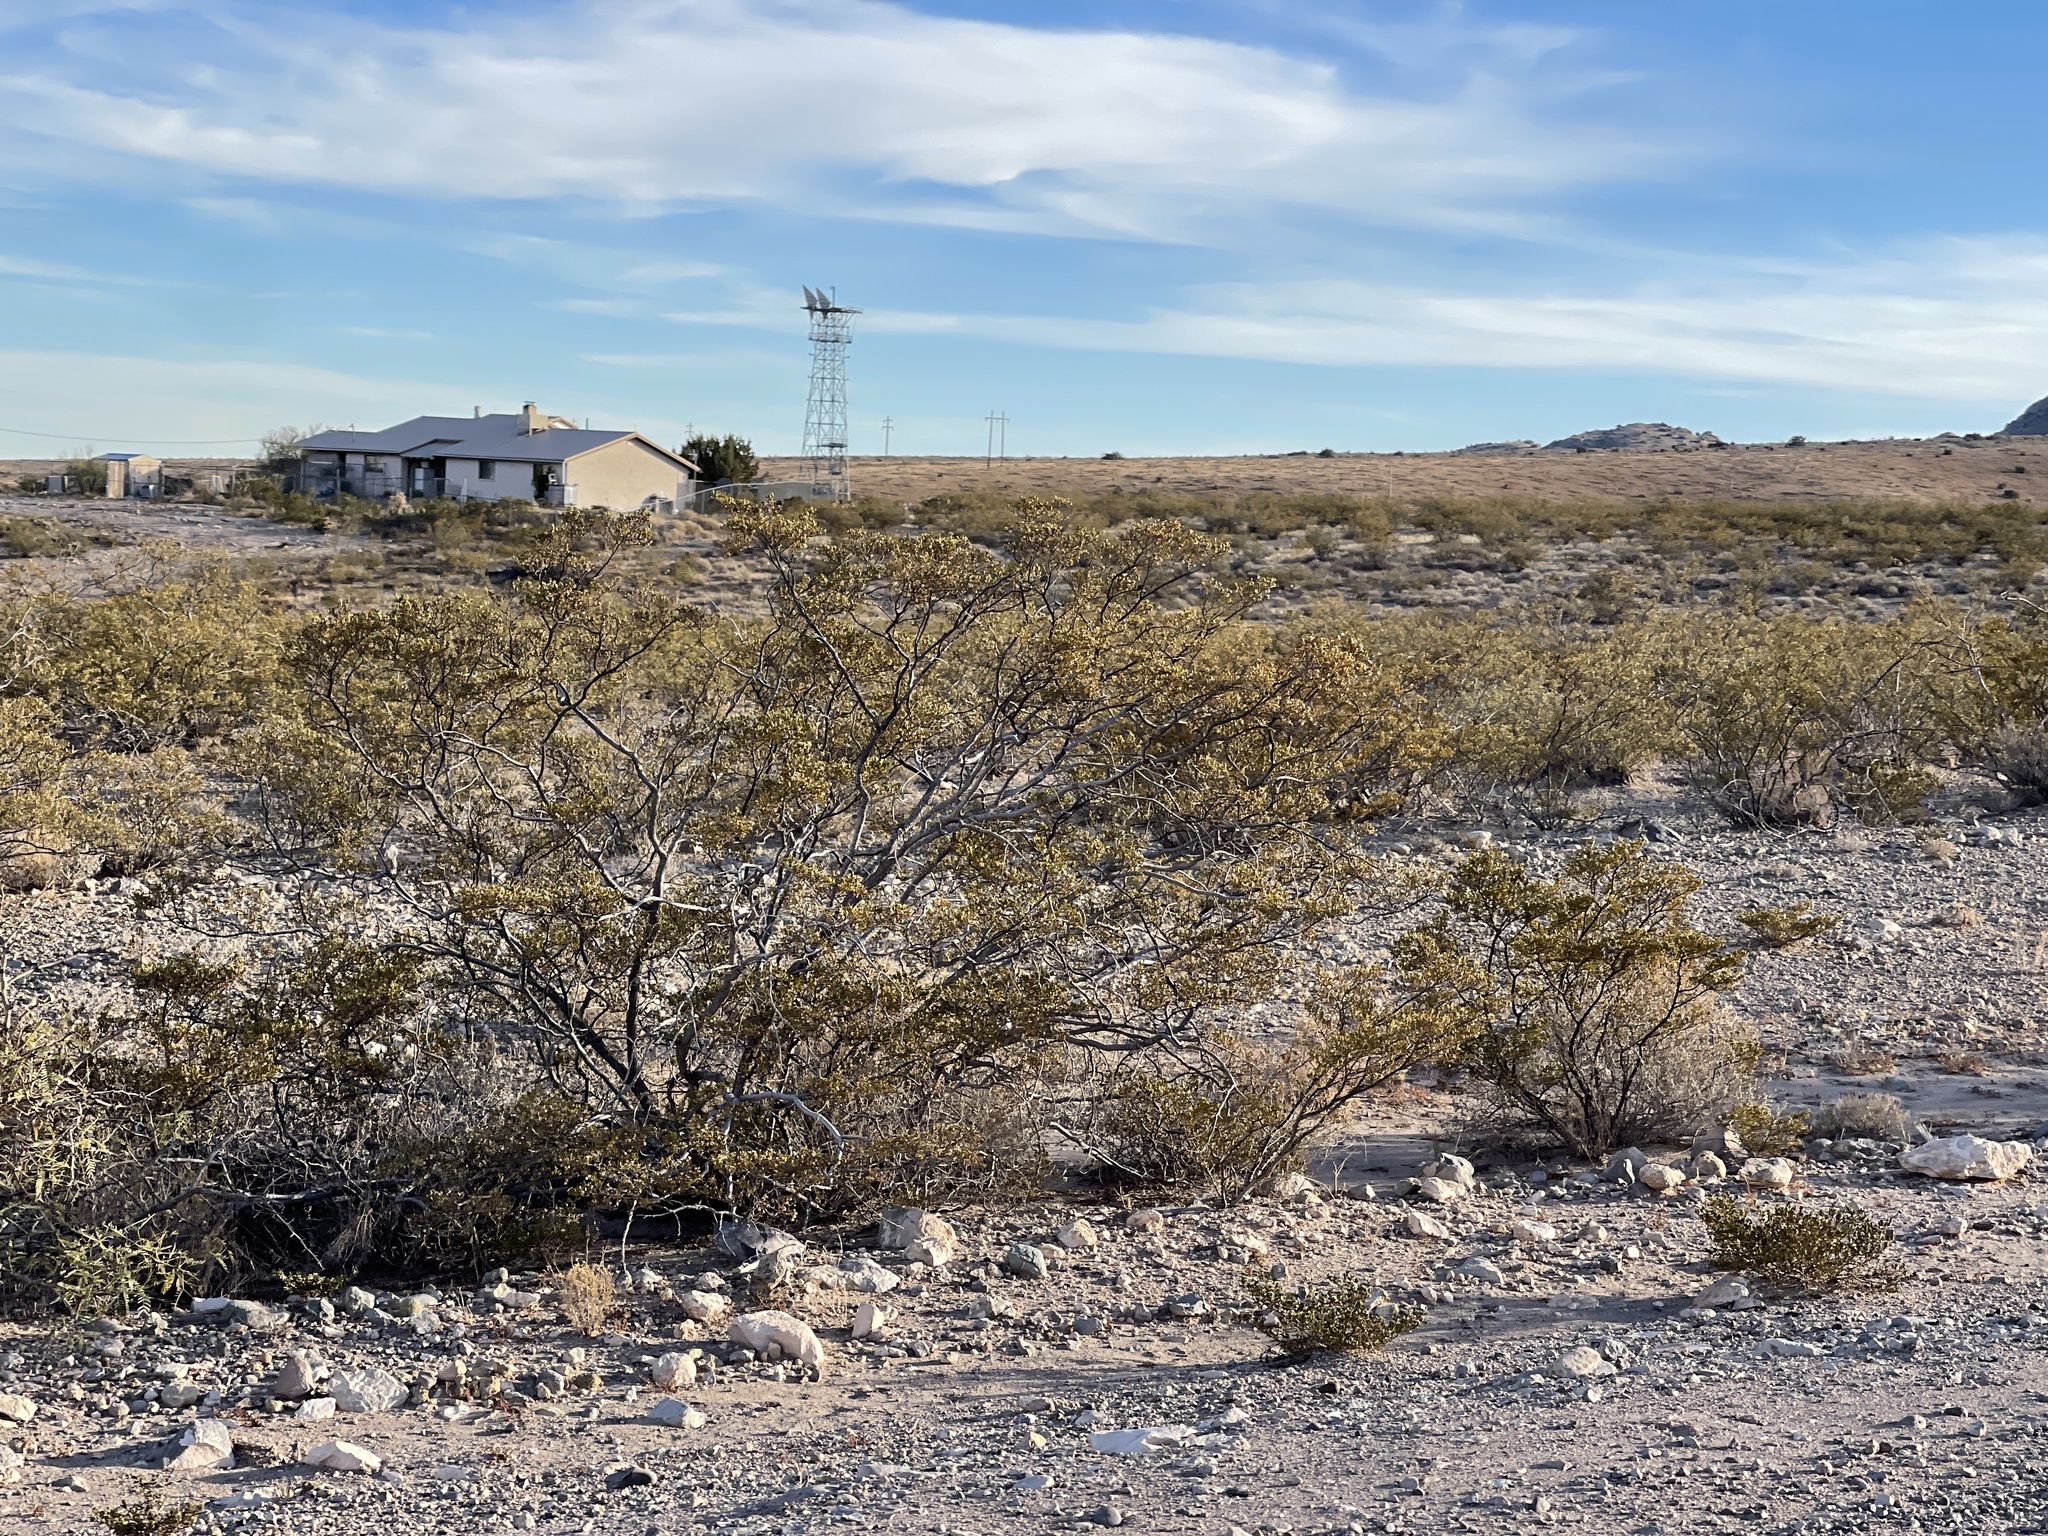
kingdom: Plantae
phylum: Tracheophyta
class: Magnoliopsida
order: Zygophyllales
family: Zygophyllaceae
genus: Larrea
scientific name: Larrea tridentata
